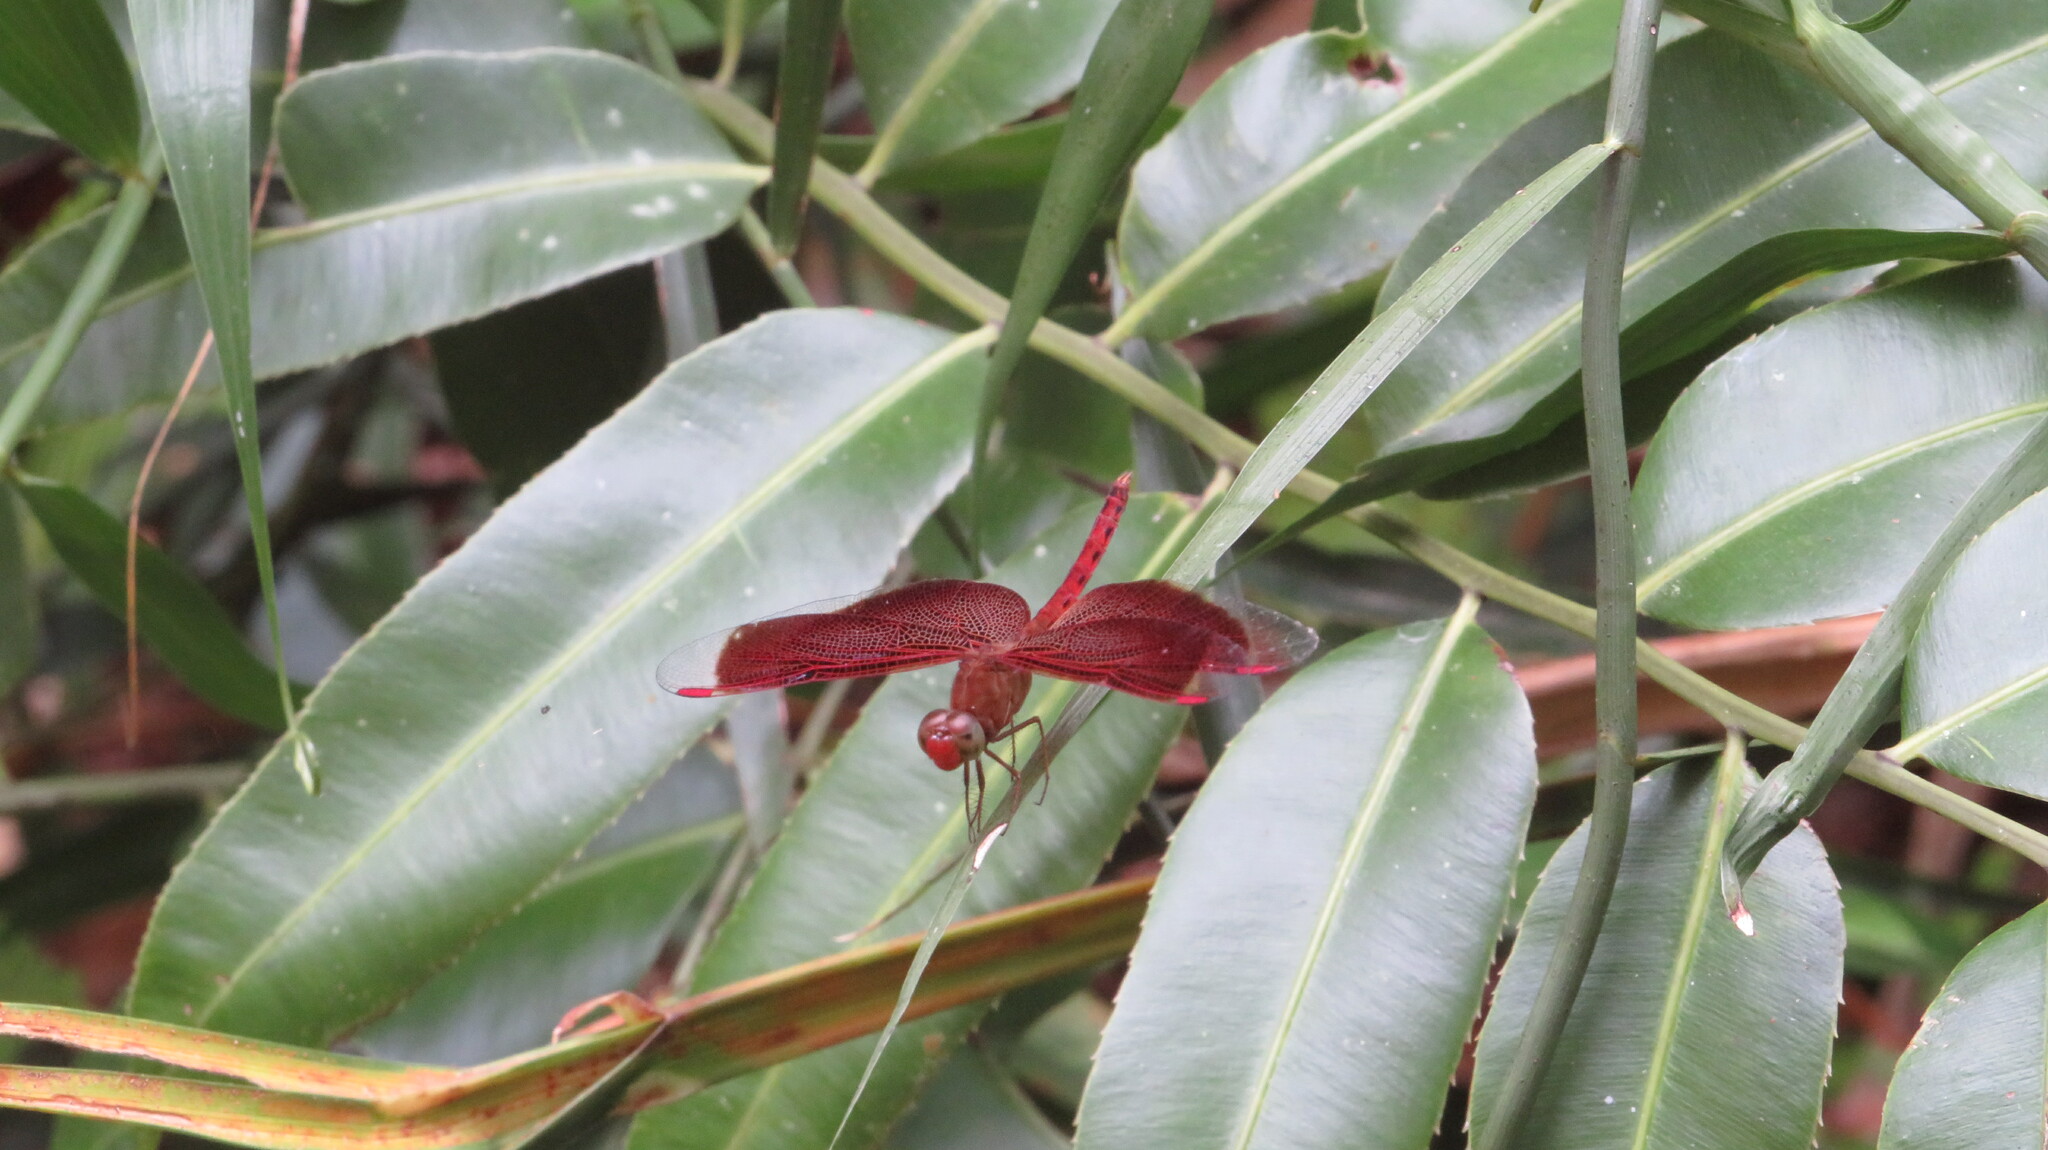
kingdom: Animalia
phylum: Arthropoda
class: Insecta
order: Odonata
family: Libellulidae
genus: Neurothemis
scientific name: Neurothemis fluctuans
